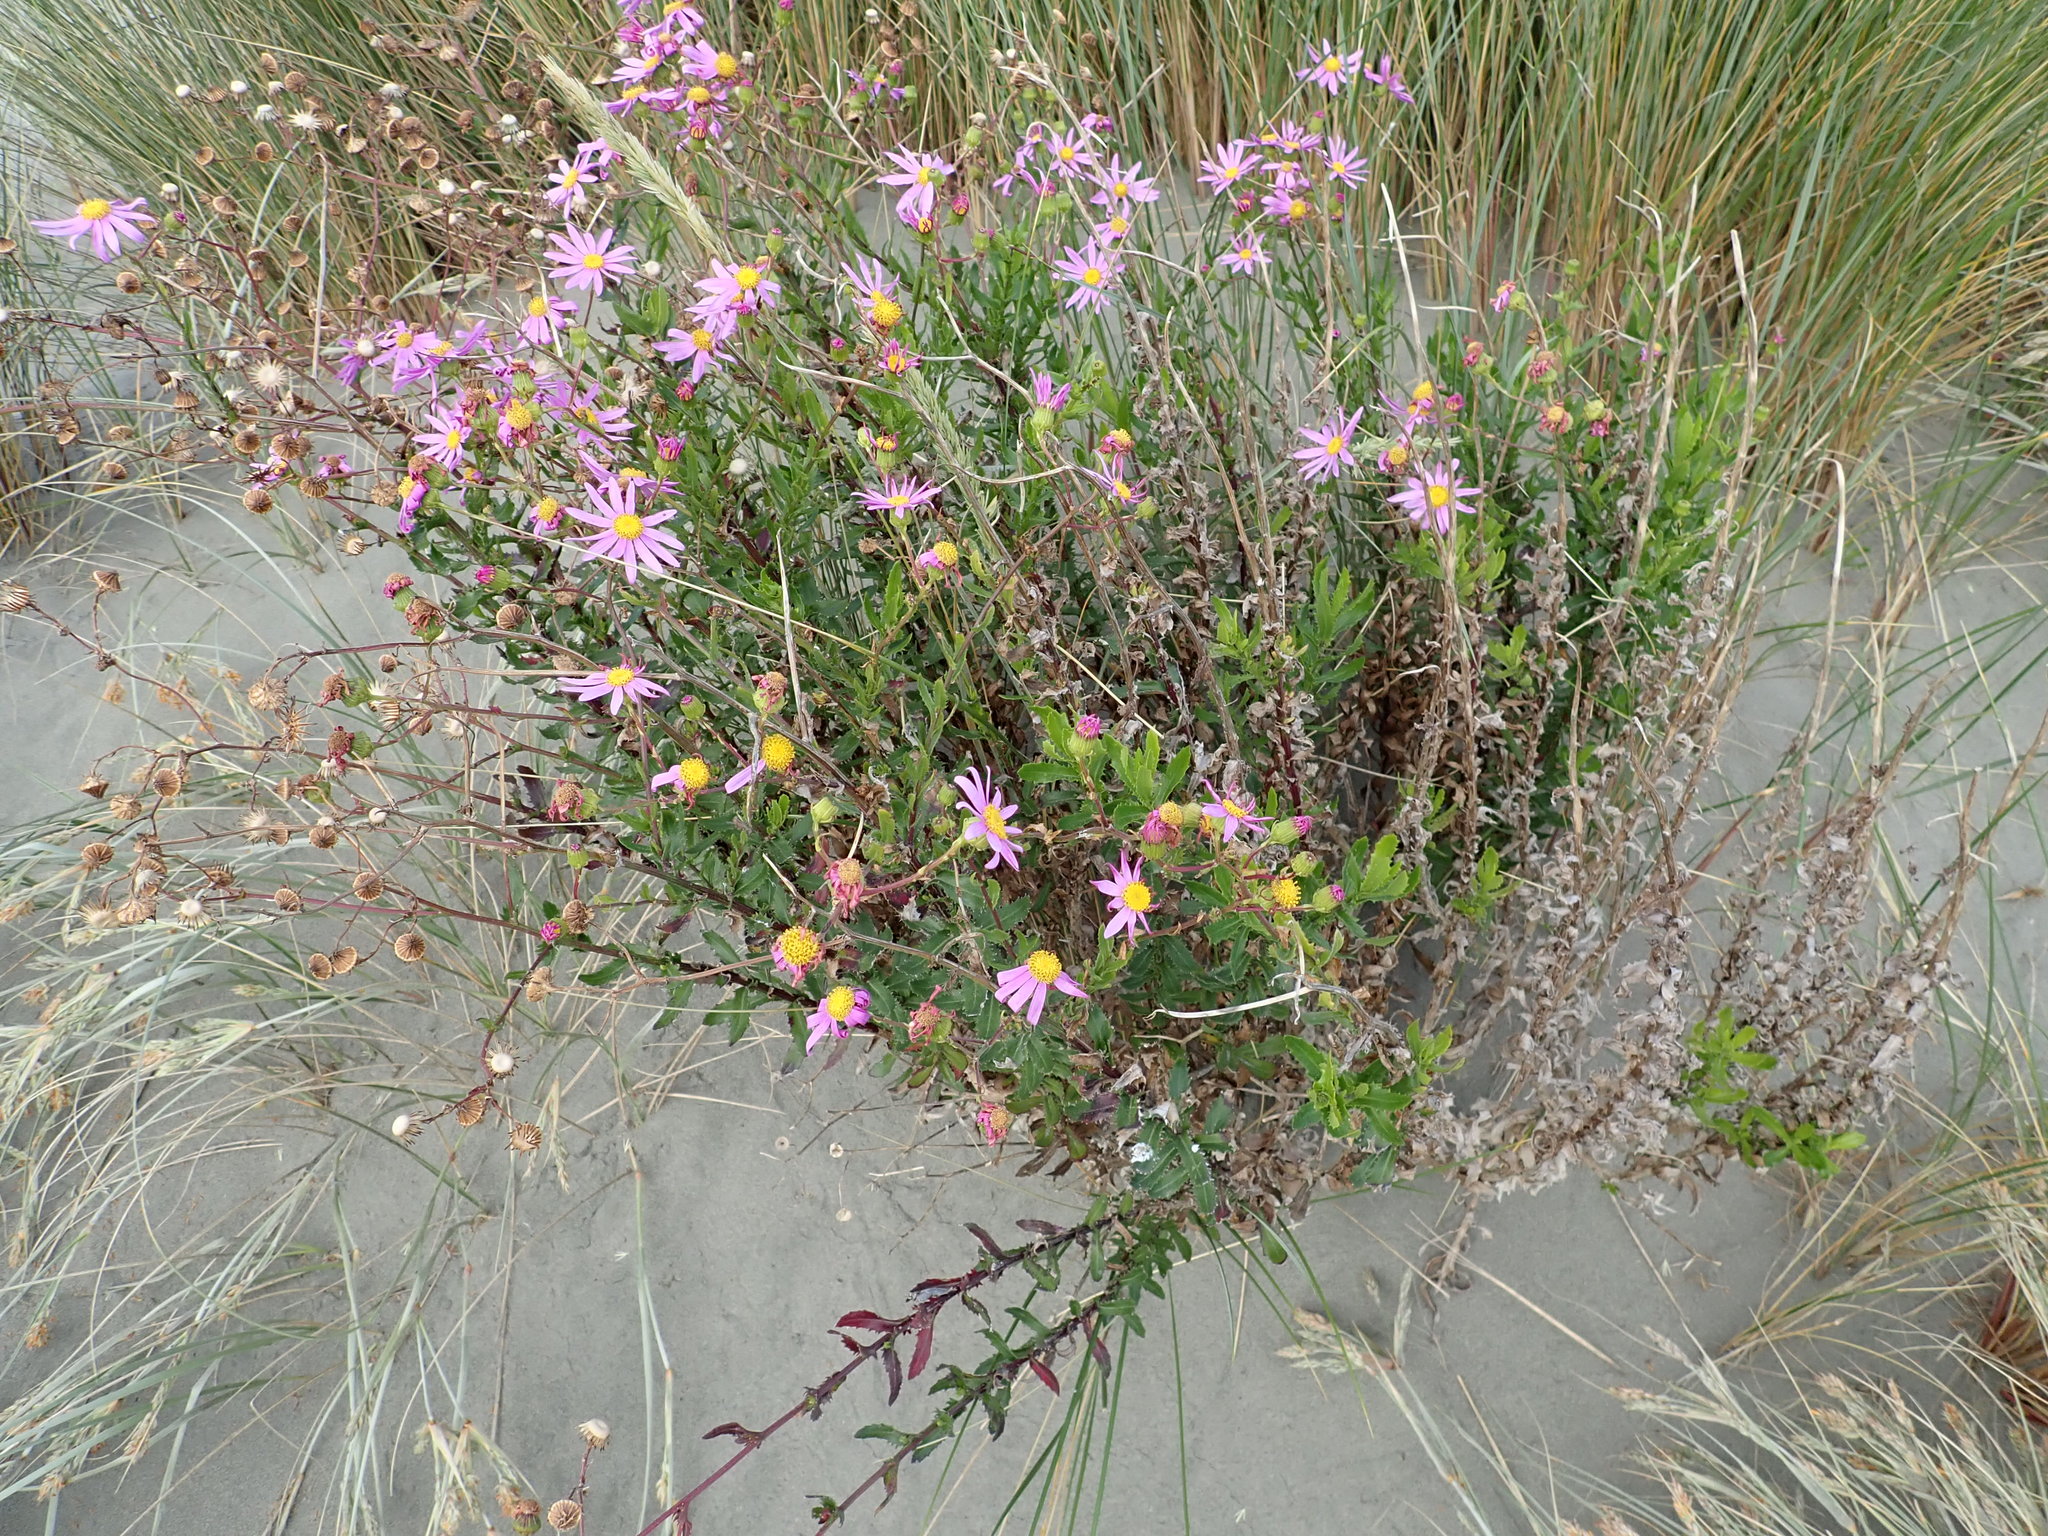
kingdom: Plantae
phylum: Tracheophyta
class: Magnoliopsida
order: Asterales
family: Asteraceae
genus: Senecio
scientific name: Senecio glastifolius
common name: Woad-leaved ragwort
